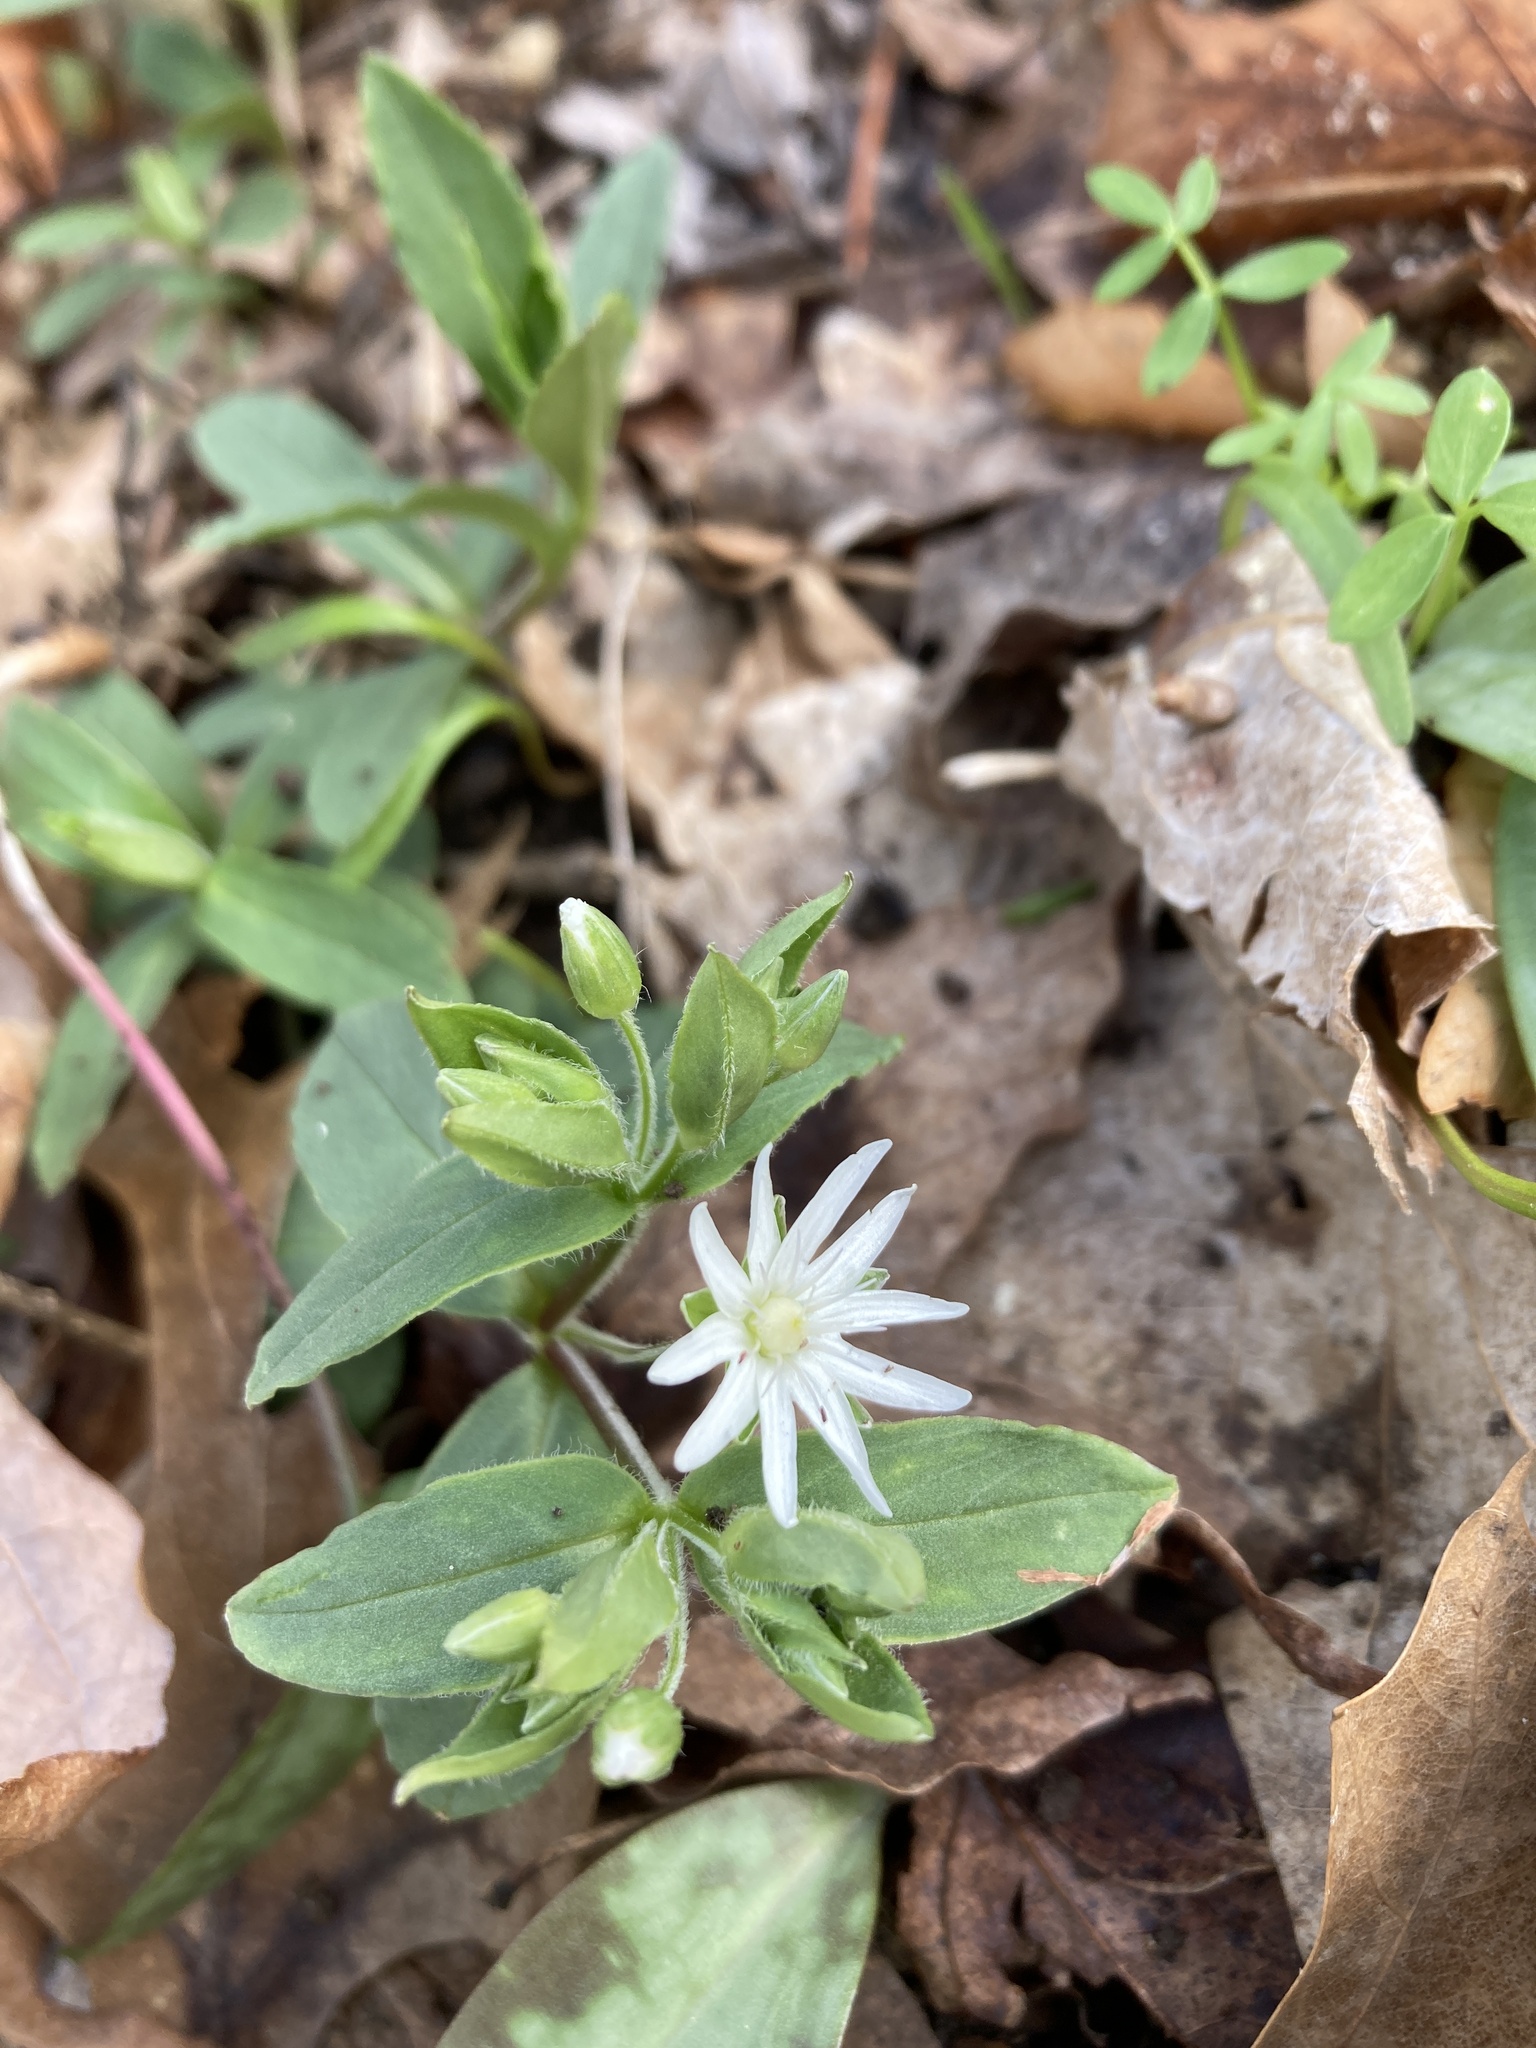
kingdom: Plantae
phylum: Tracheophyta
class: Magnoliopsida
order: Caryophyllales
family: Caryophyllaceae
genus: Stellaria
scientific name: Stellaria pubera
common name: Star chickweed
